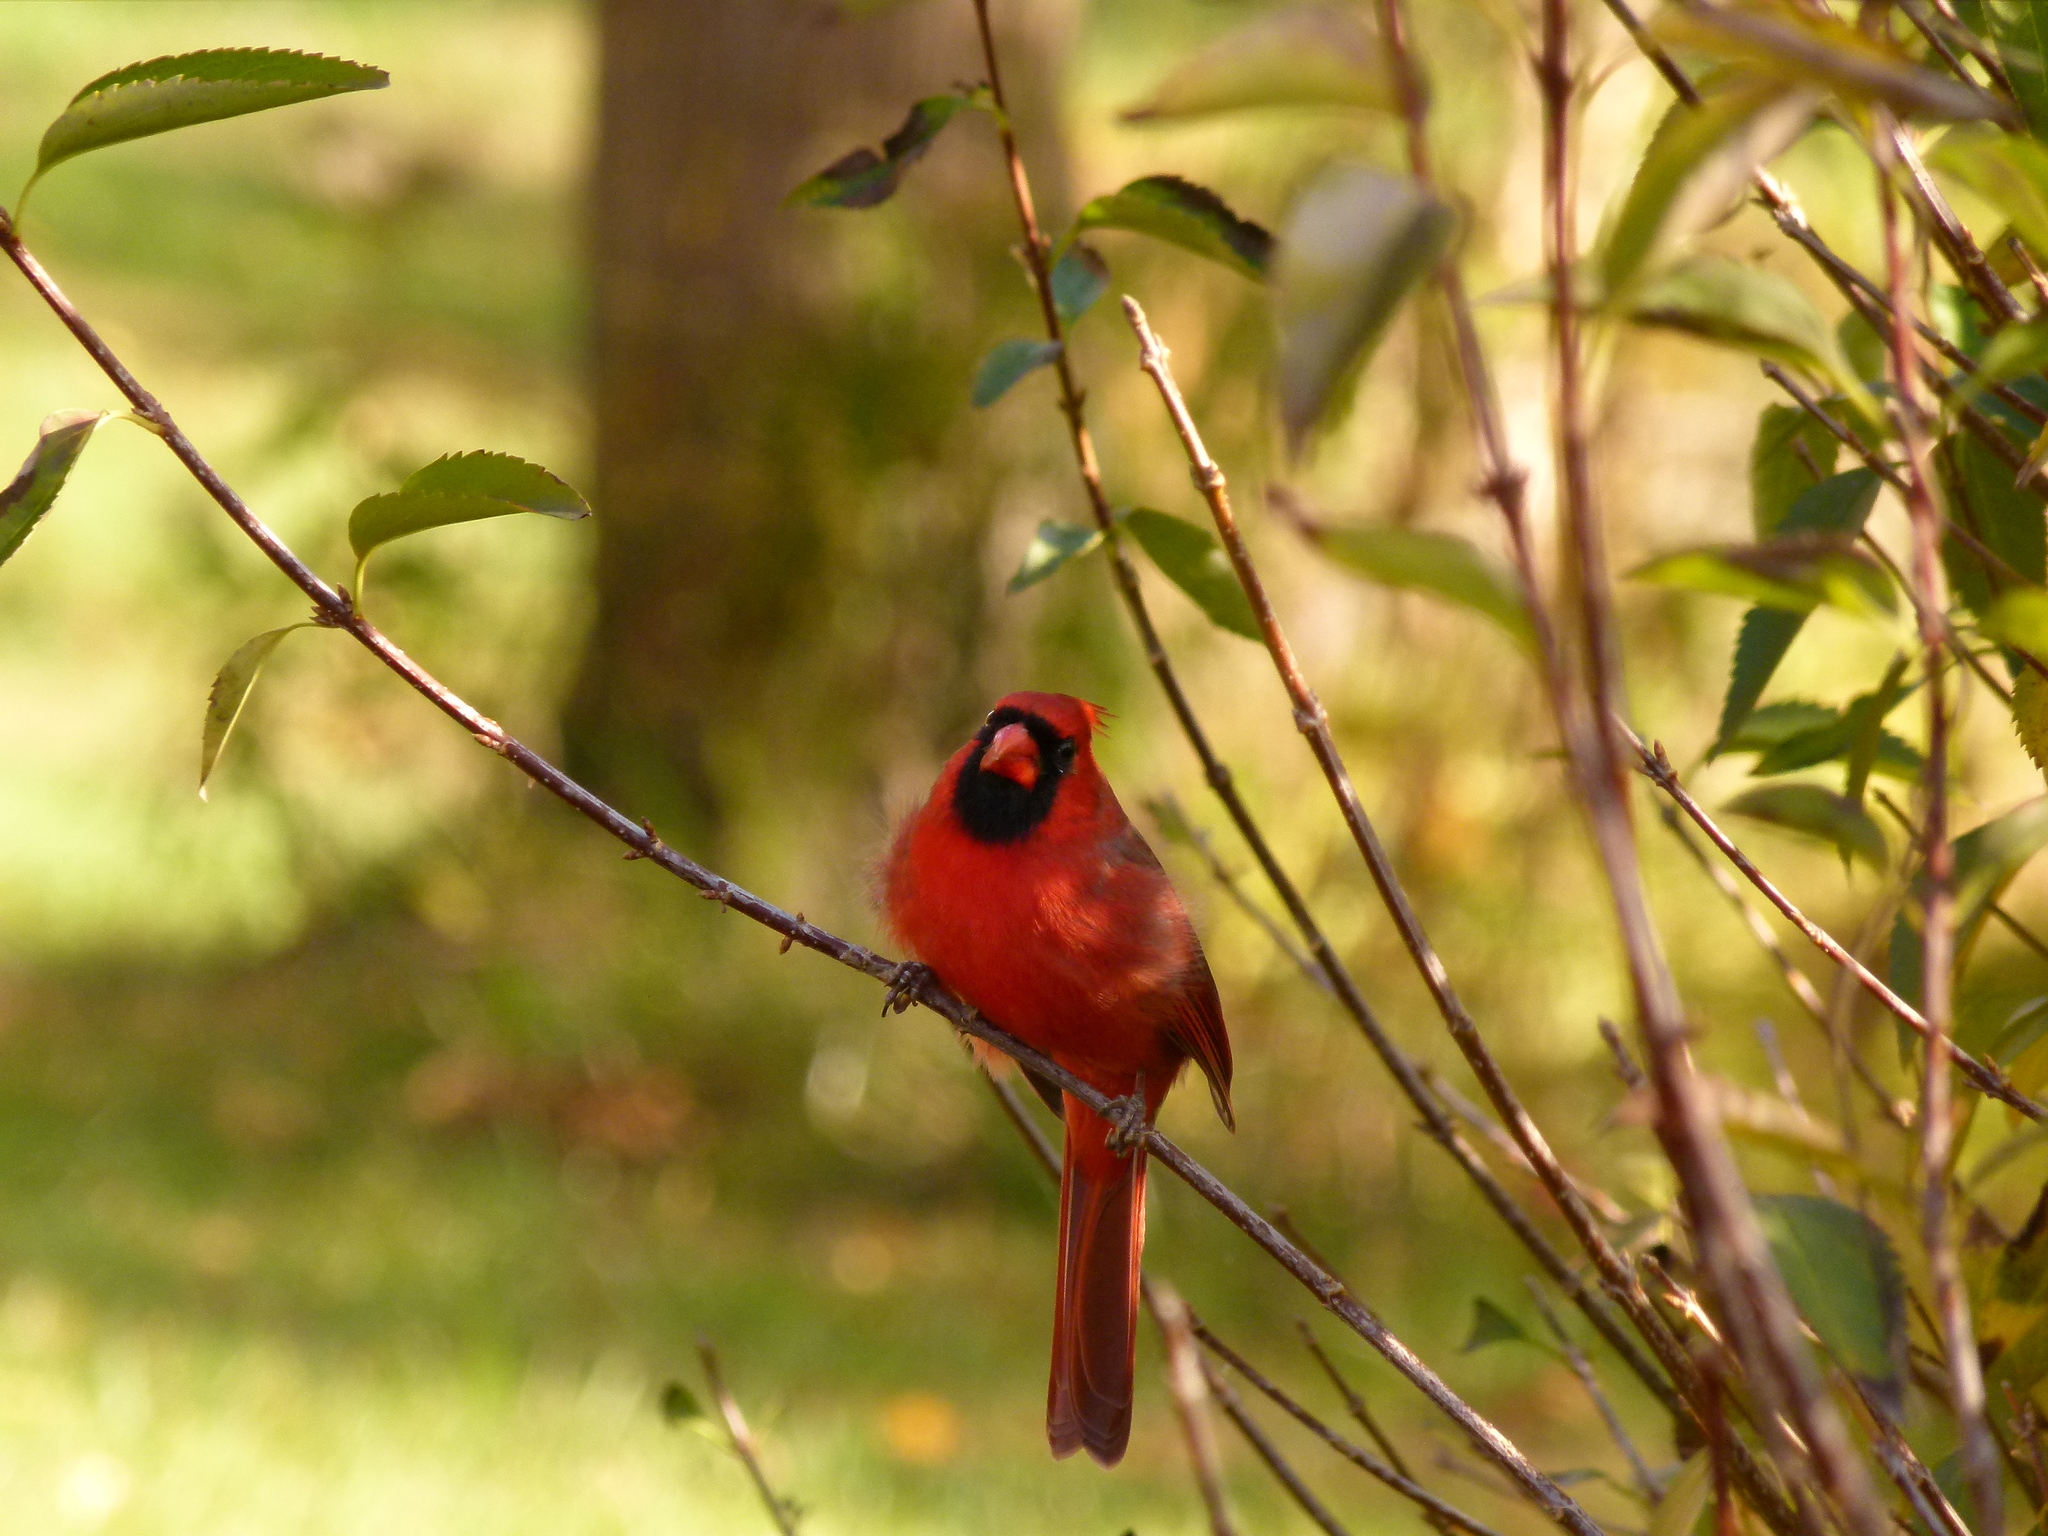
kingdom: Animalia
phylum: Chordata
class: Aves
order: Passeriformes
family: Cardinalidae
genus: Cardinalis
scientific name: Cardinalis cardinalis
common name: Northern cardinal
